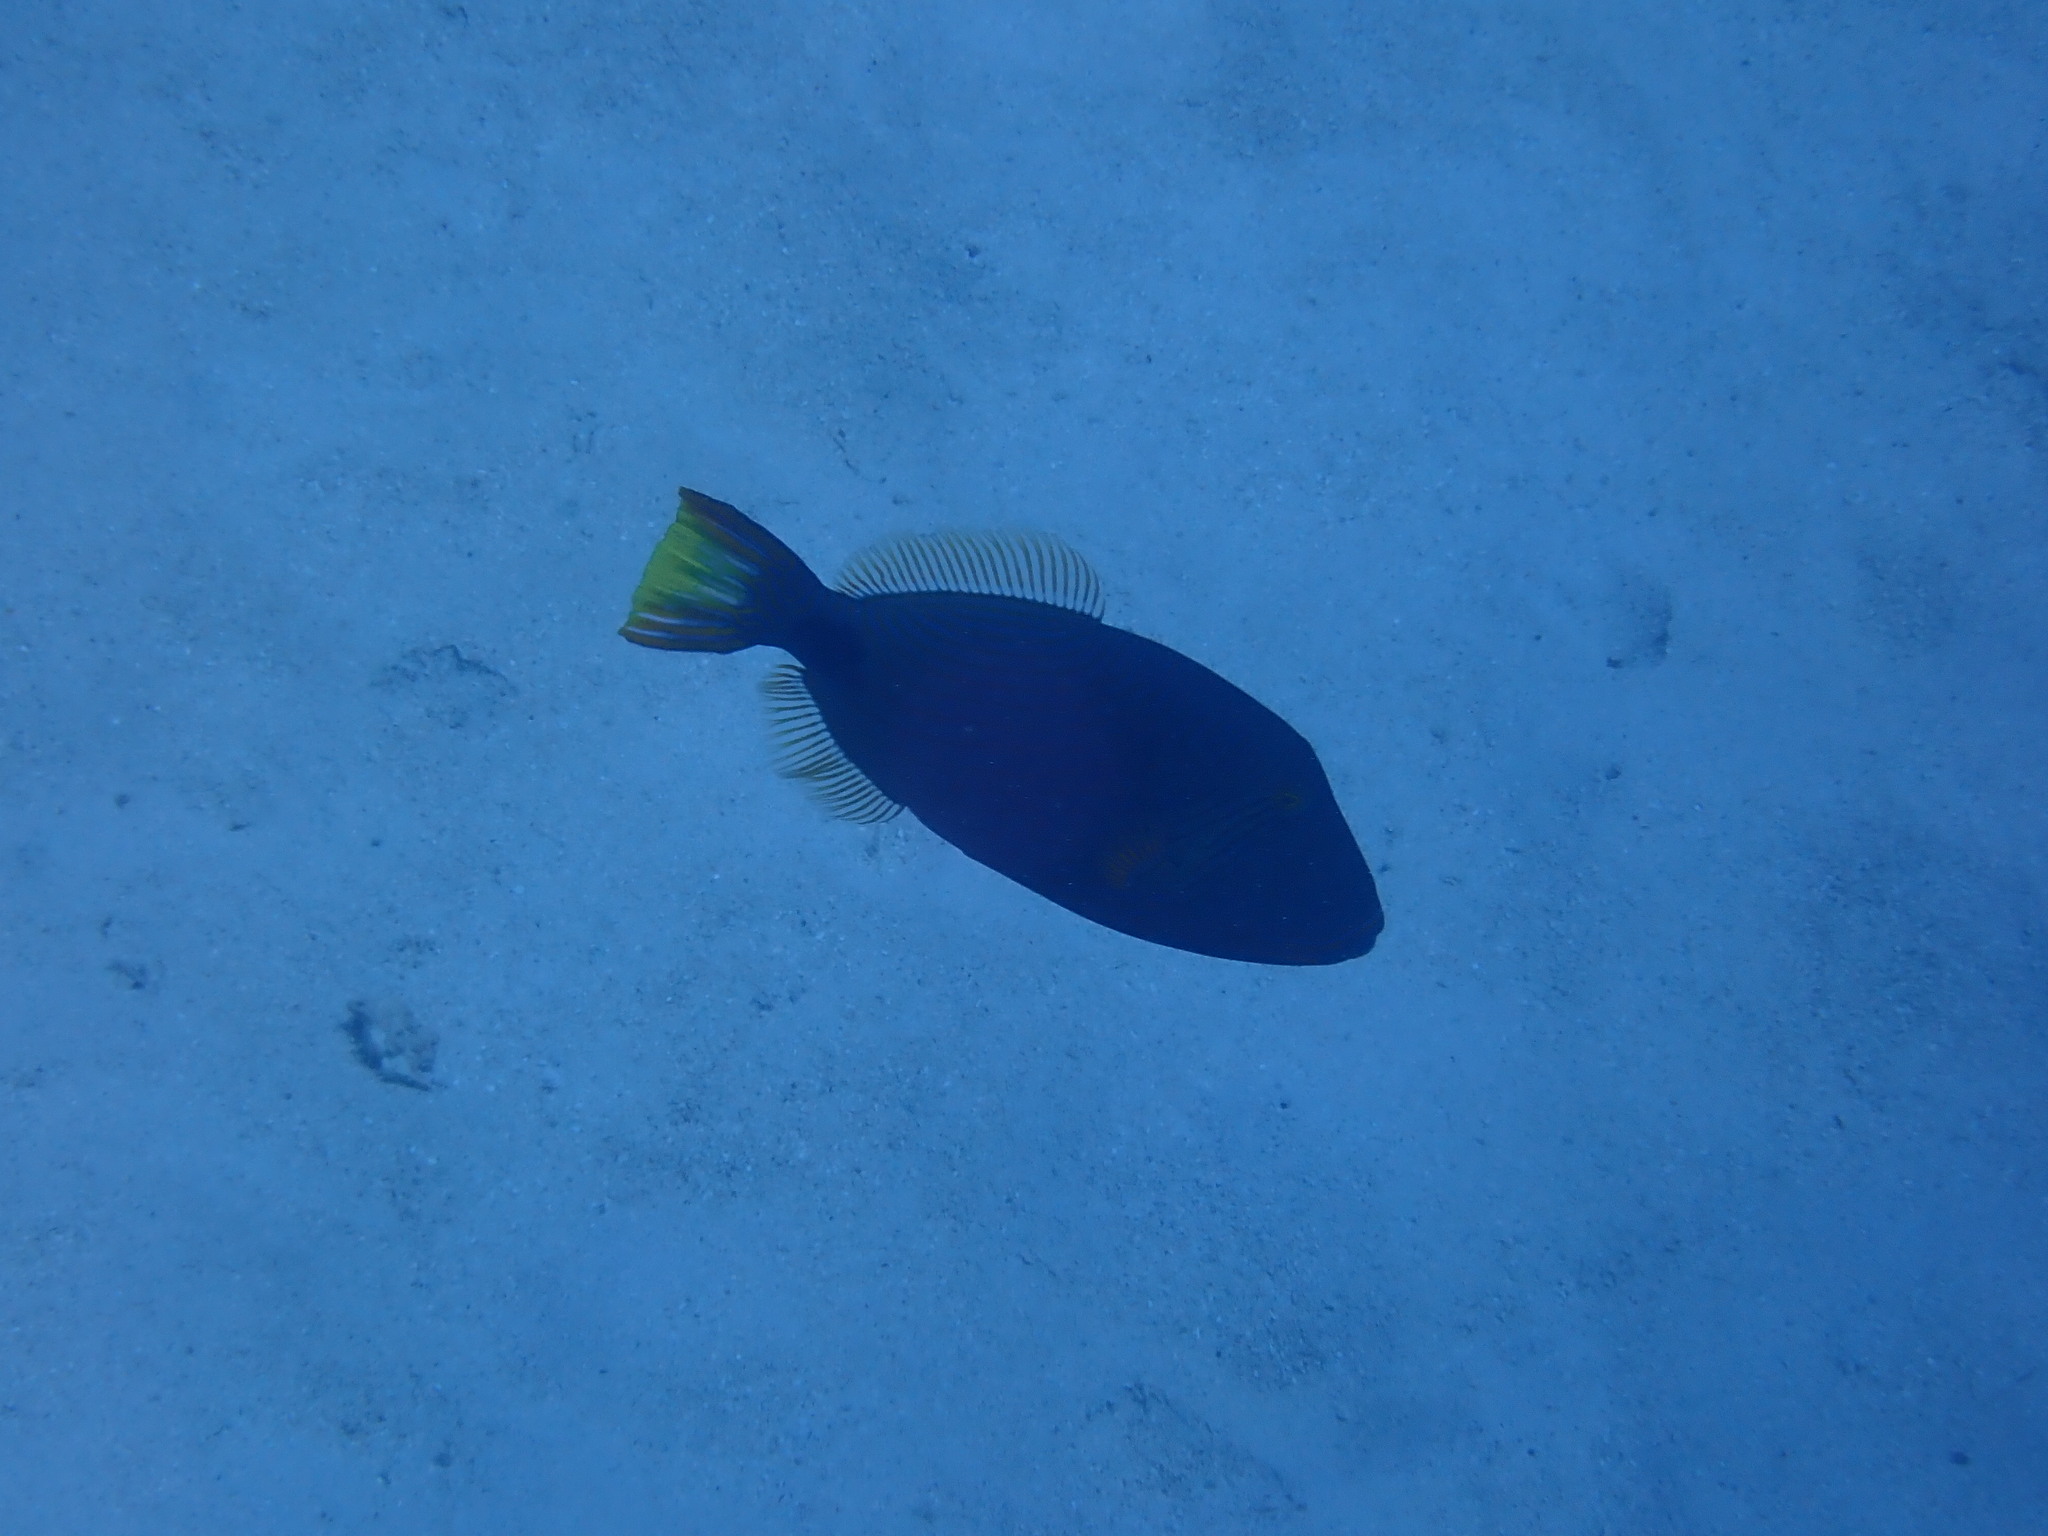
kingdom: Animalia
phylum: Chordata
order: Tetraodontiformes
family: Balistidae
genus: Balistapus
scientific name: Balistapus undulatus
